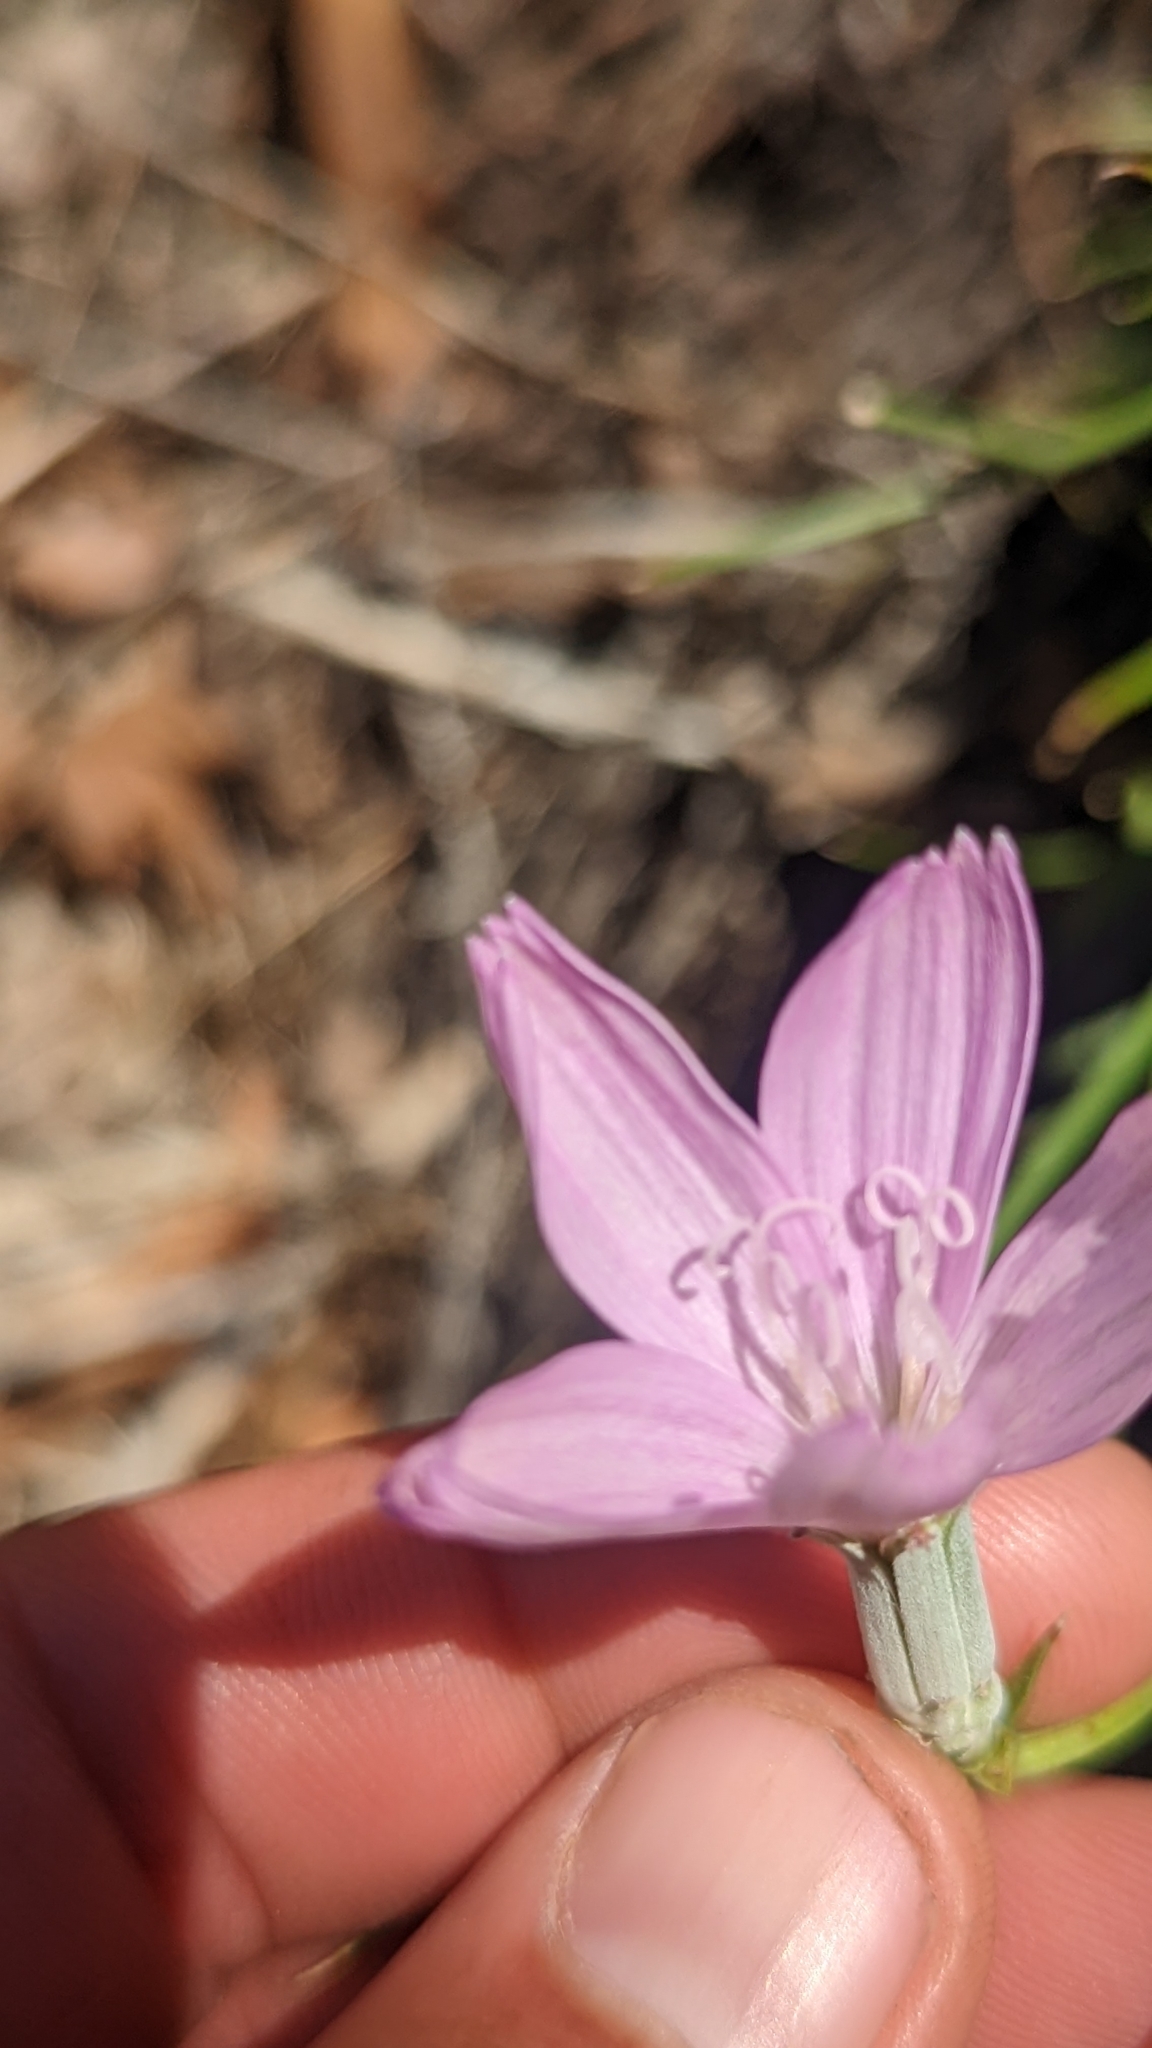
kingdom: Plantae
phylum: Tracheophyta
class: Magnoliopsida
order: Asterales
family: Asteraceae
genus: Lygodesmia
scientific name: Lygodesmia juncea
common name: Common skeletonweed
